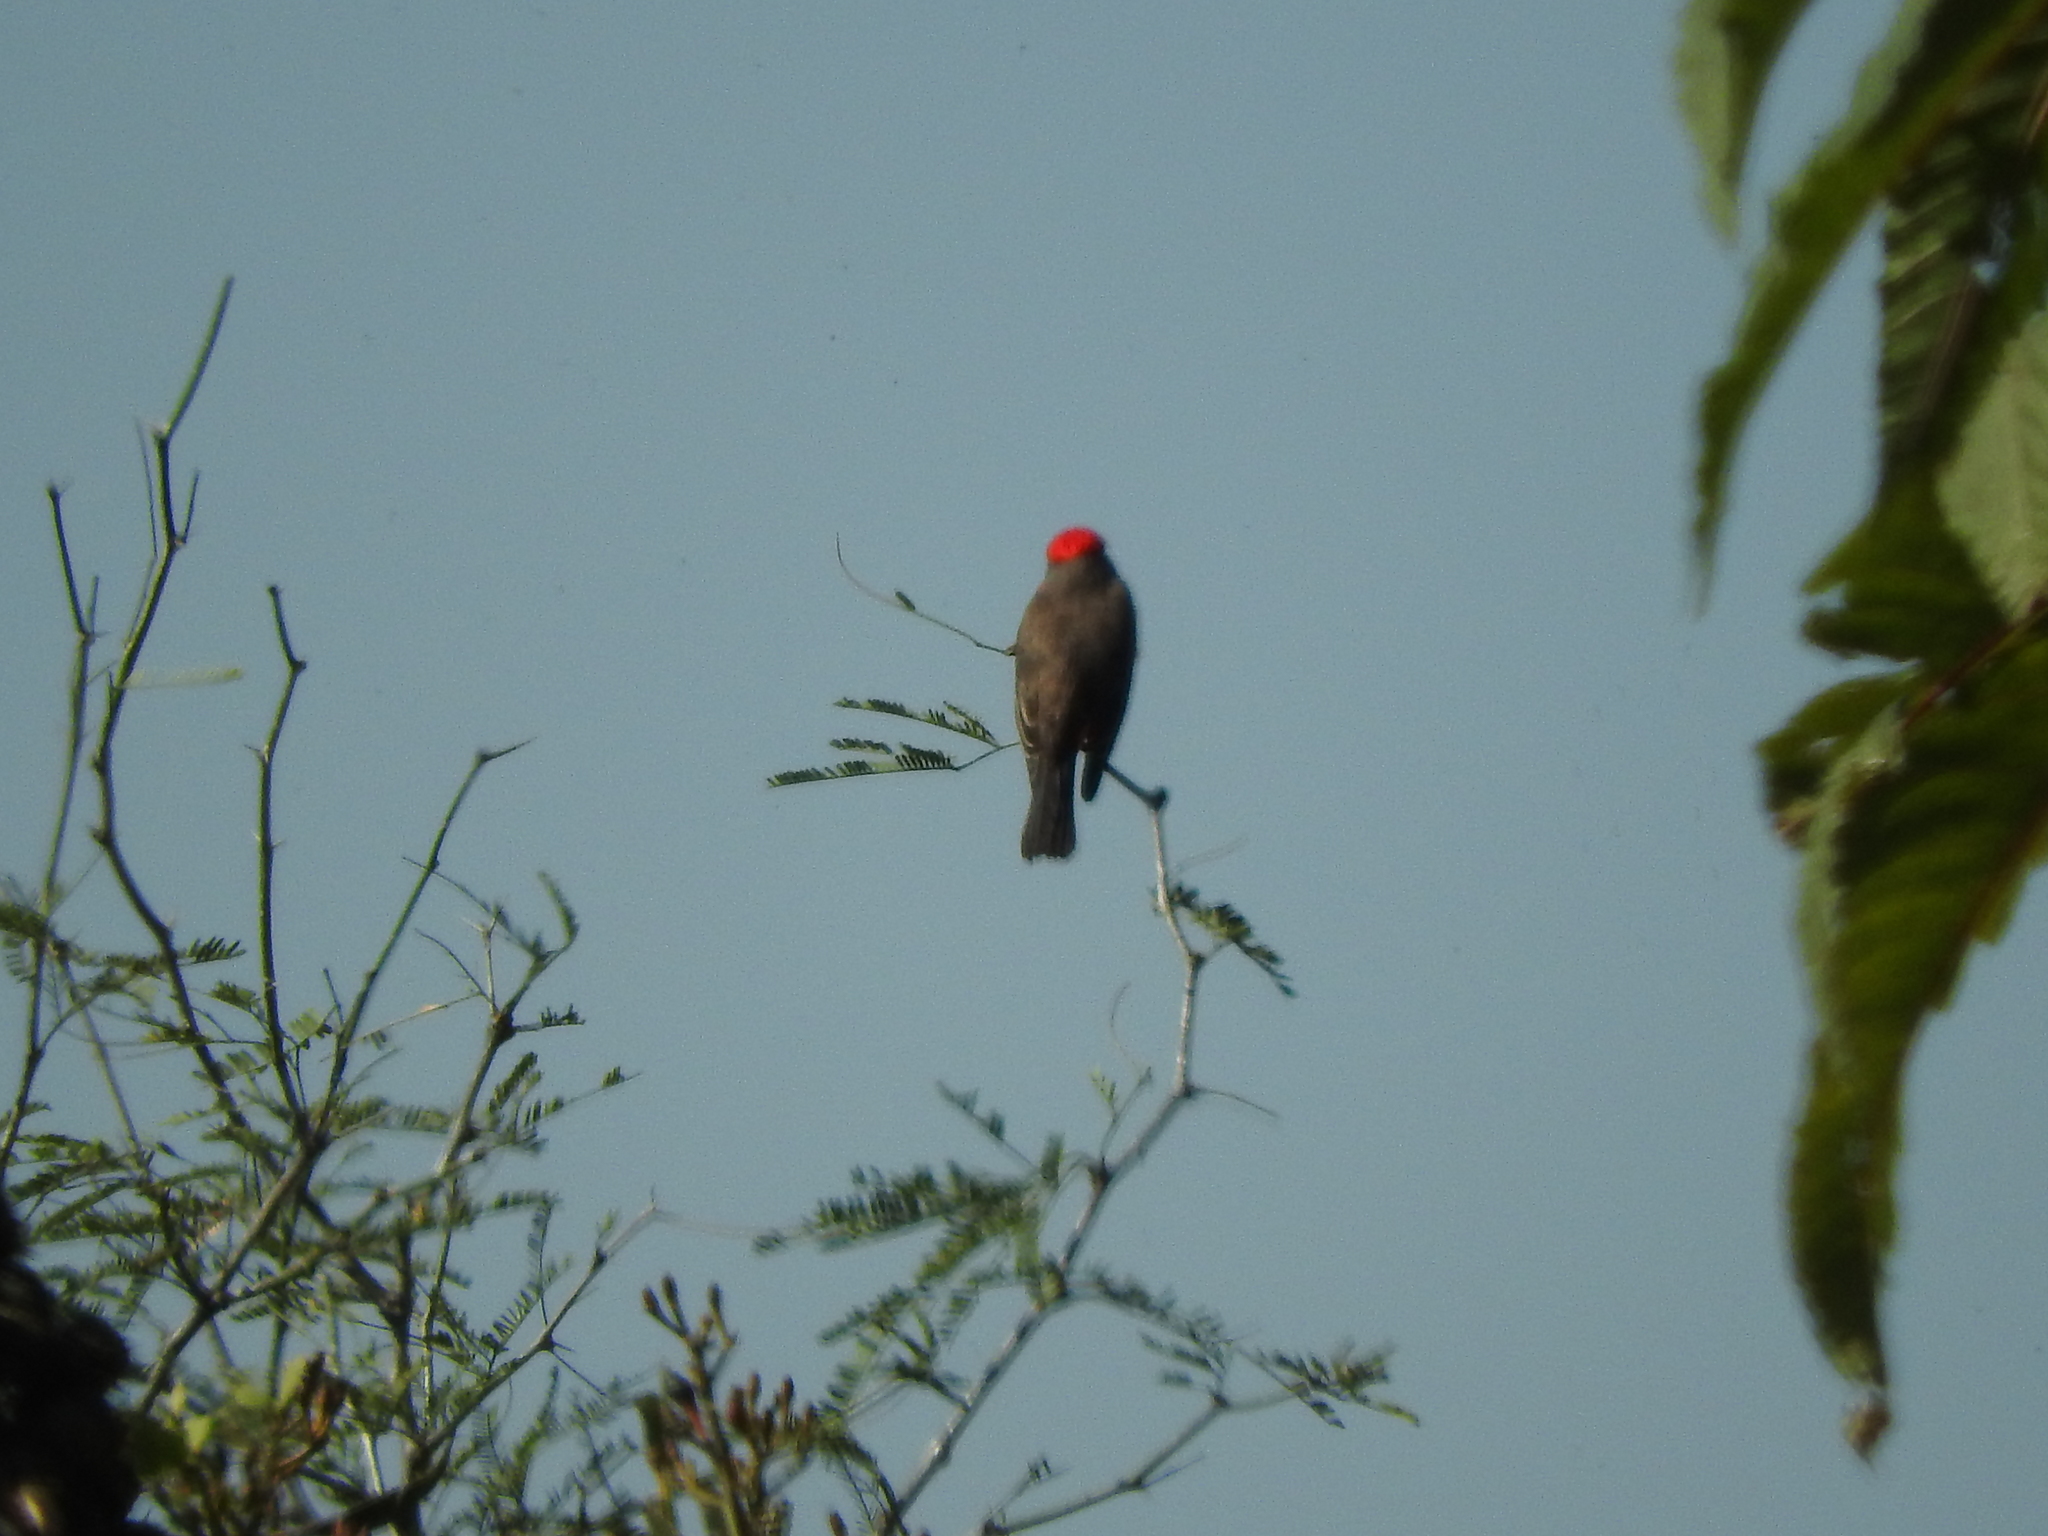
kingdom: Animalia
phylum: Chordata
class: Aves
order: Passeriformes
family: Tyrannidae
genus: Pyrocephalus
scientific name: Pyrocephalus rubinus
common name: Vermilion flycatcher
